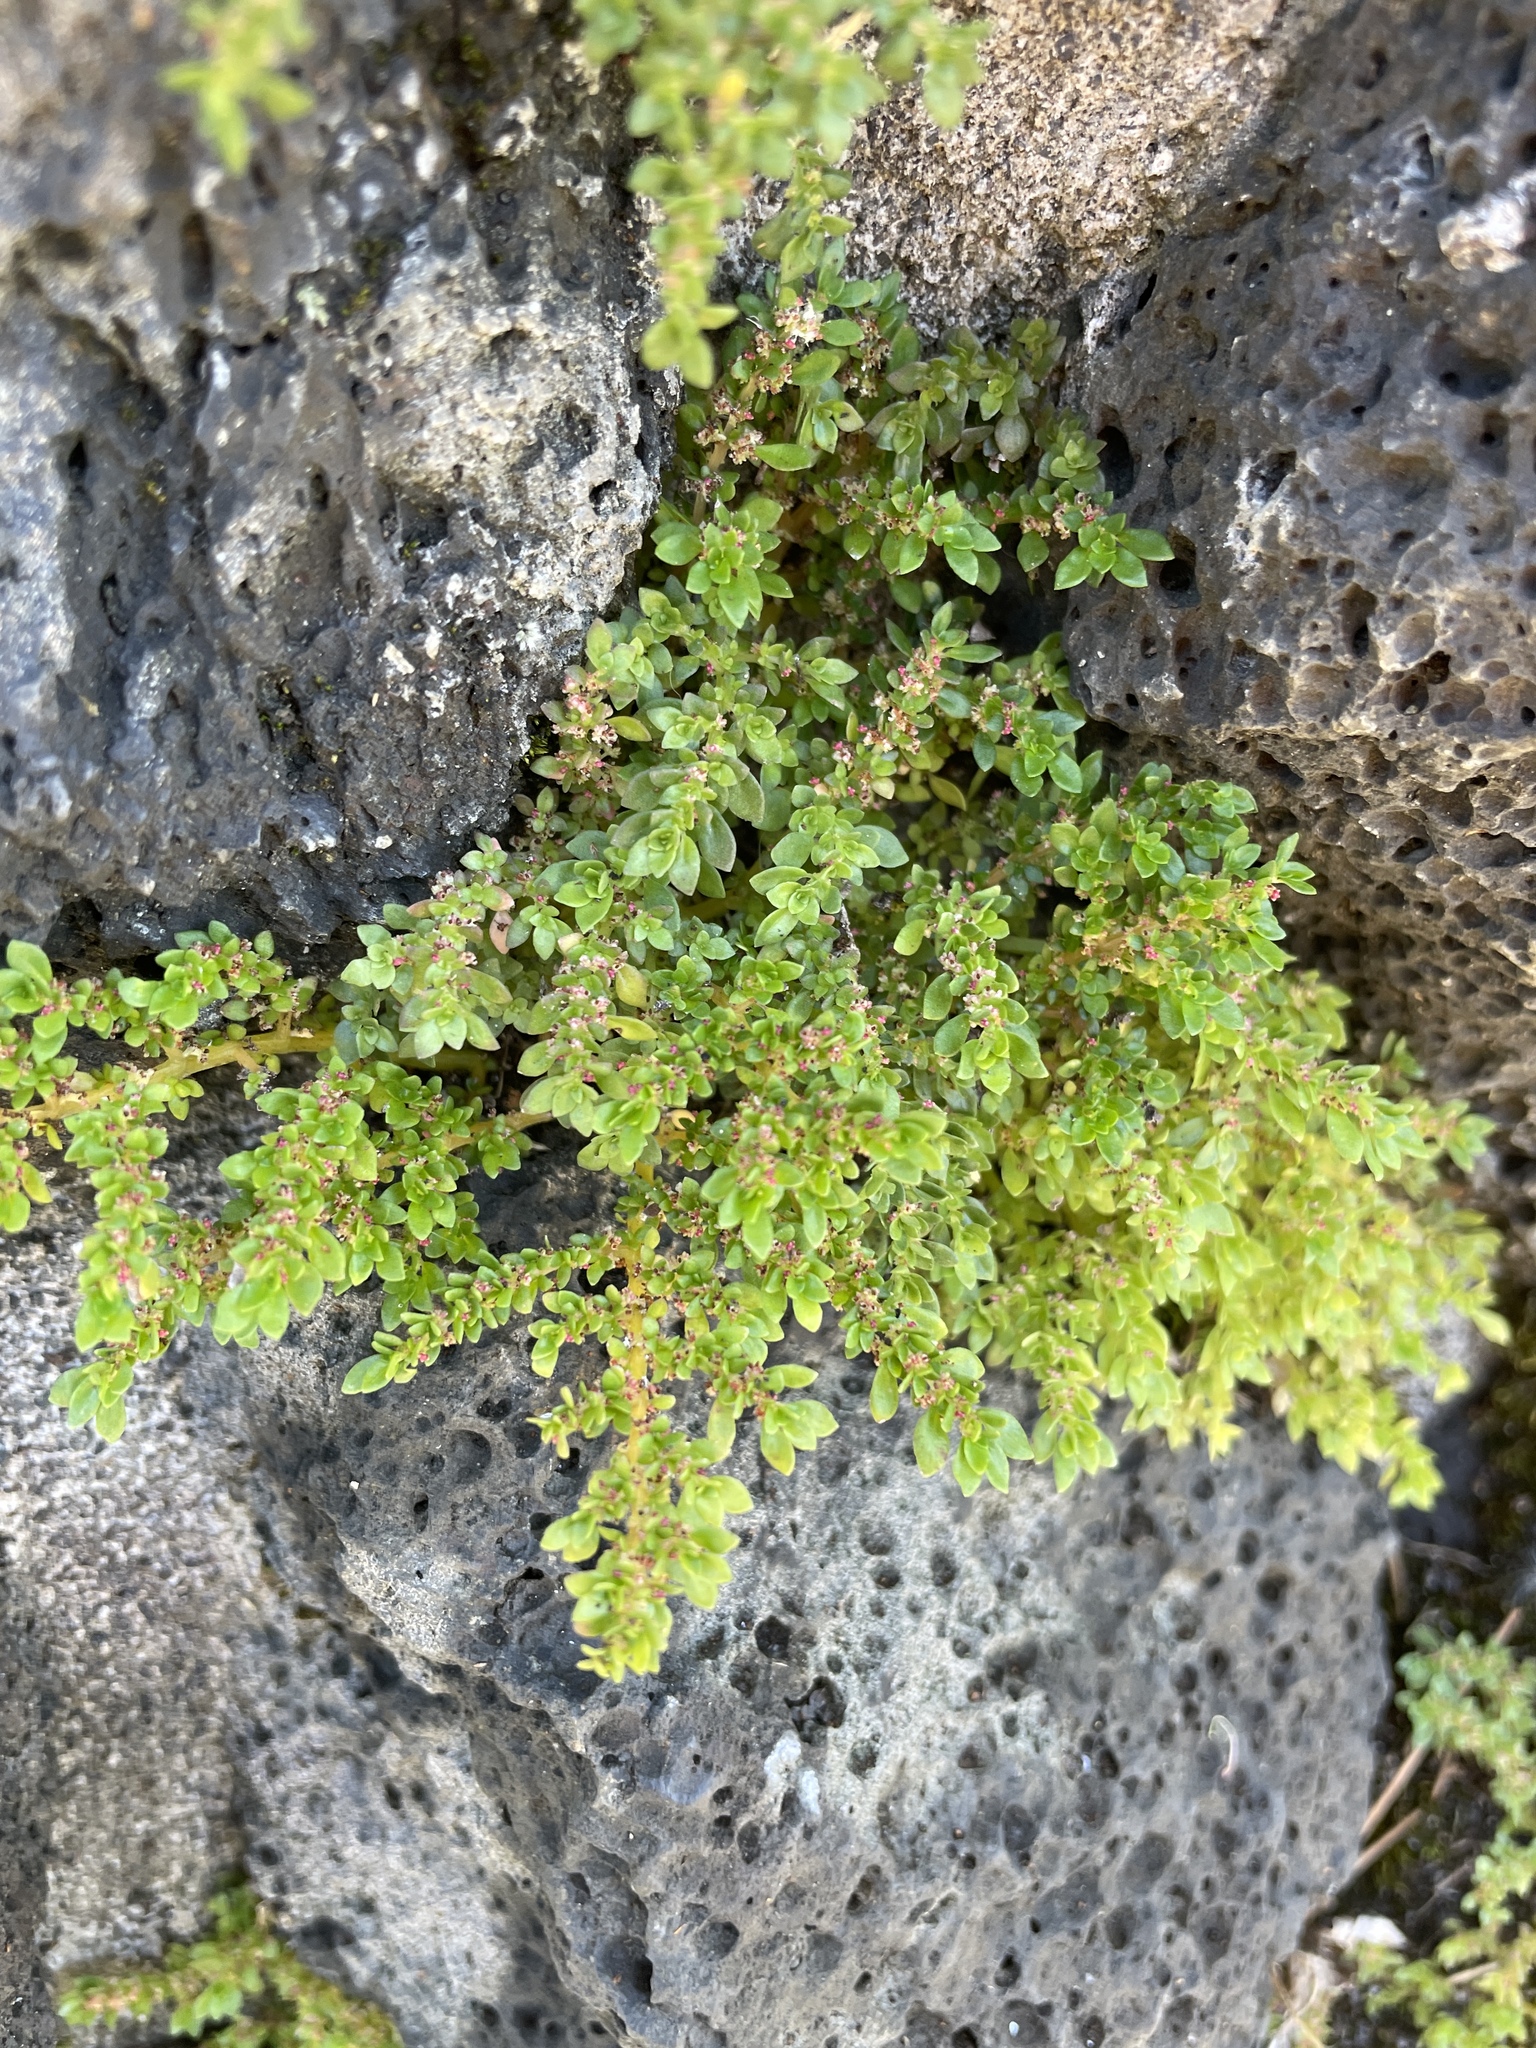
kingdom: Plantae
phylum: Tracheophyta
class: Magnoliopsida
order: Rosales
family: Urticaceae
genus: Pilea
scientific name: Pilea microphylla
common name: Artillery-plant
